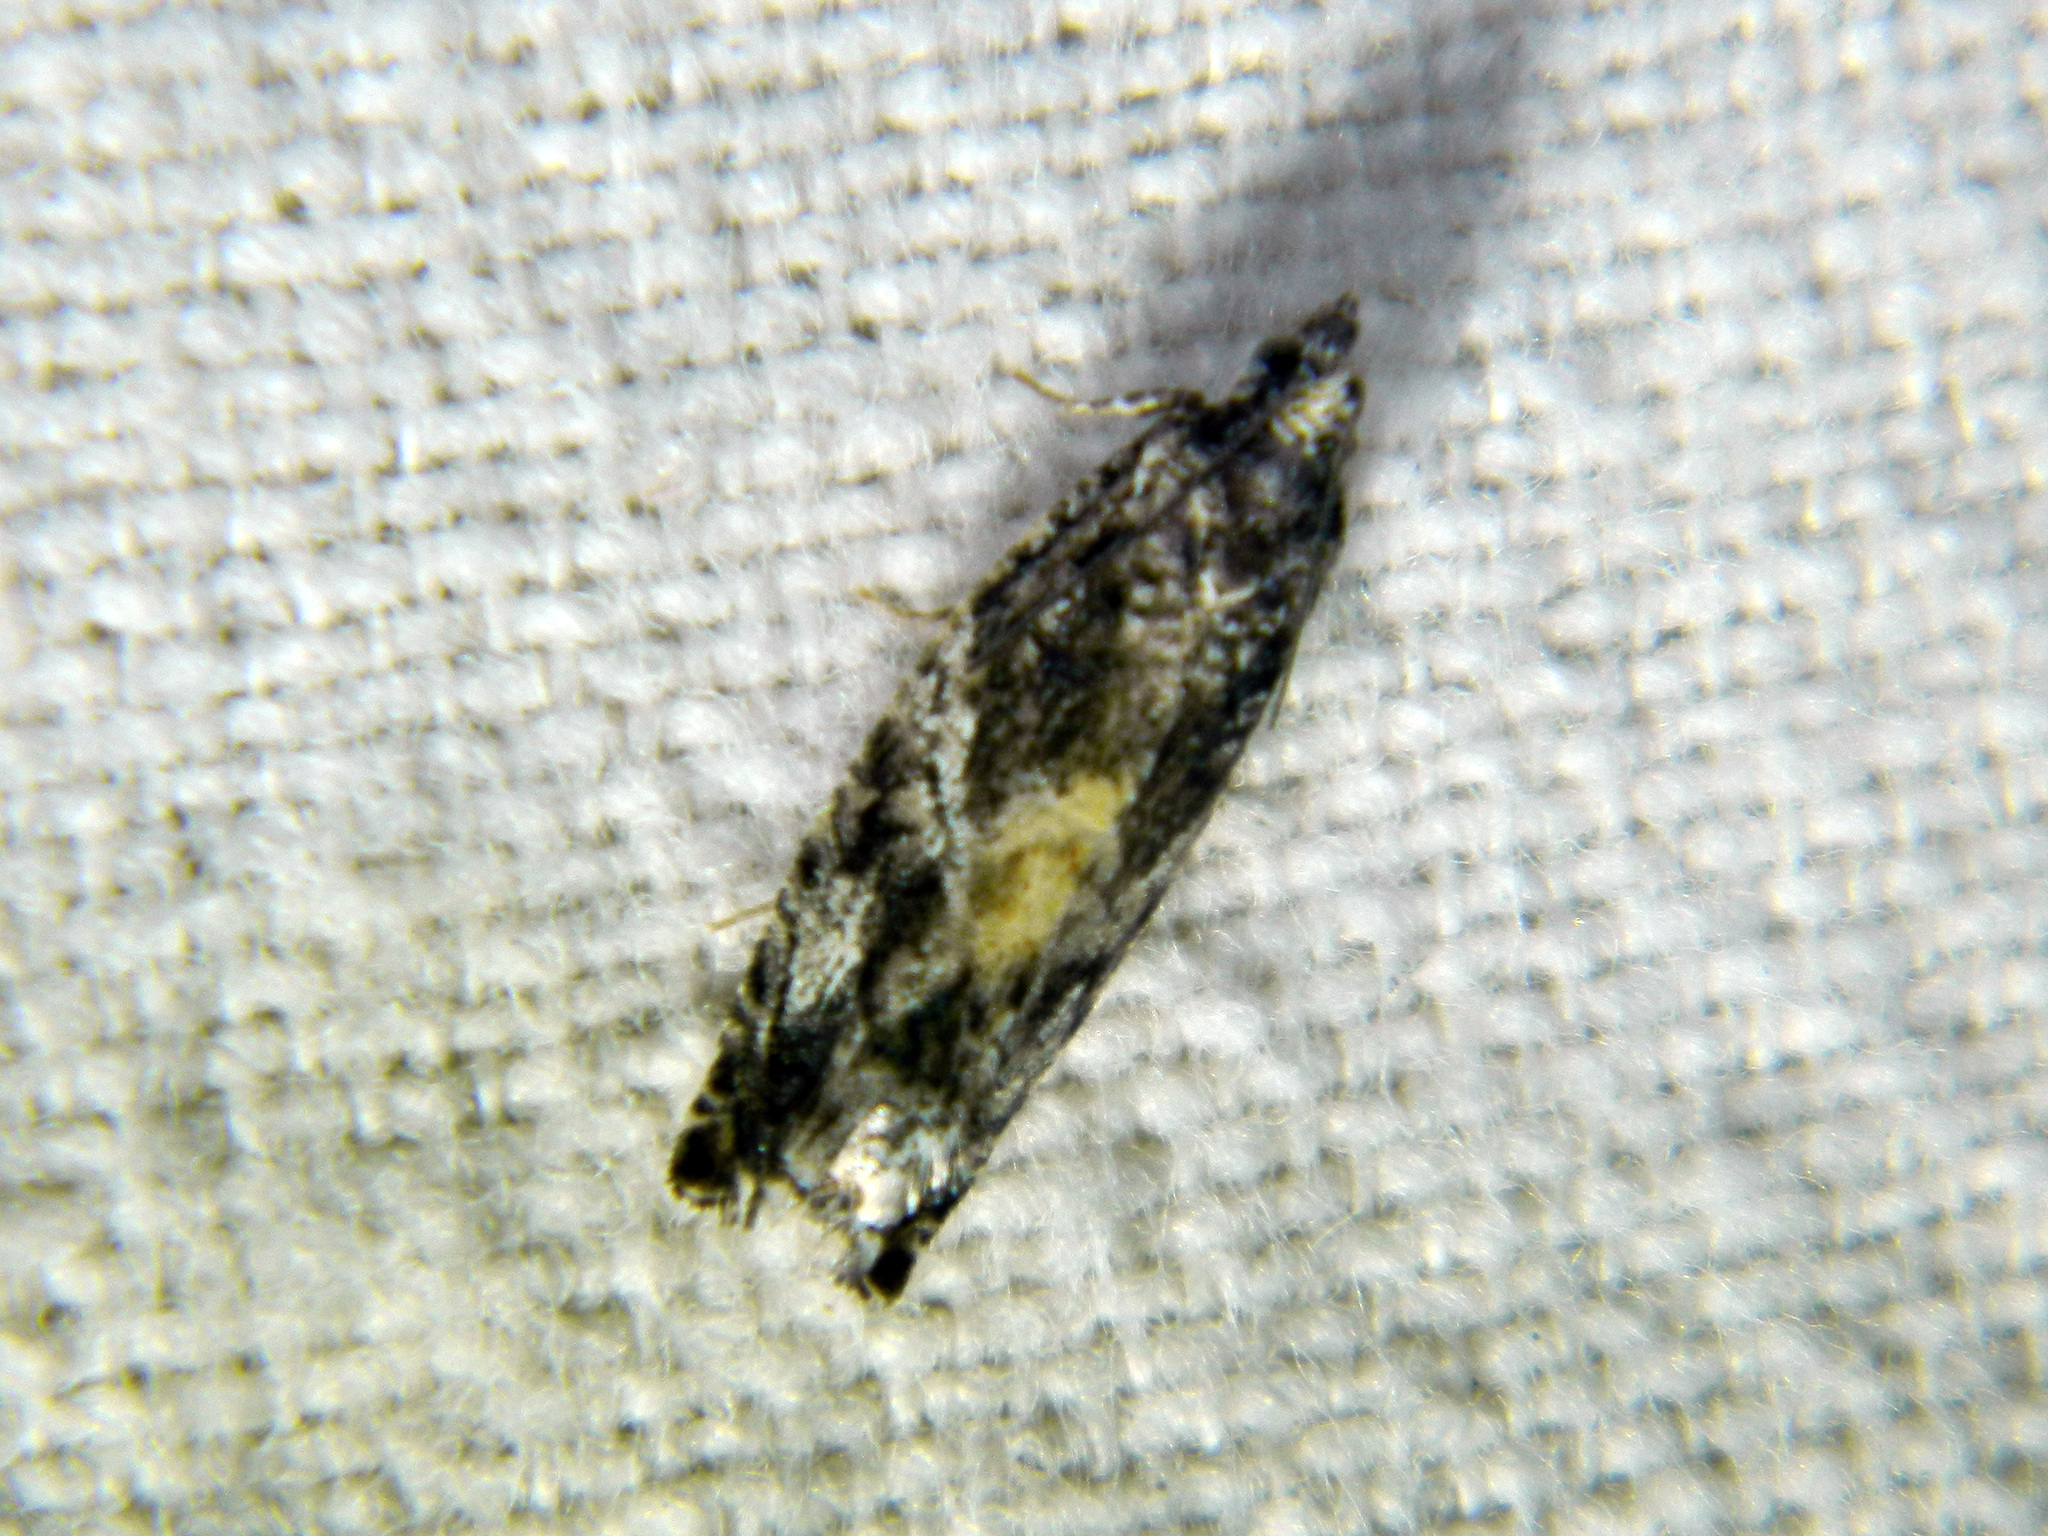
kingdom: Animalia
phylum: Arthropoda
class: Insecta
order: Lepidoptera
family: Tortricidae
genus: Epinotia
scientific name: Epinotia nisella
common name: Grey poplar bell
